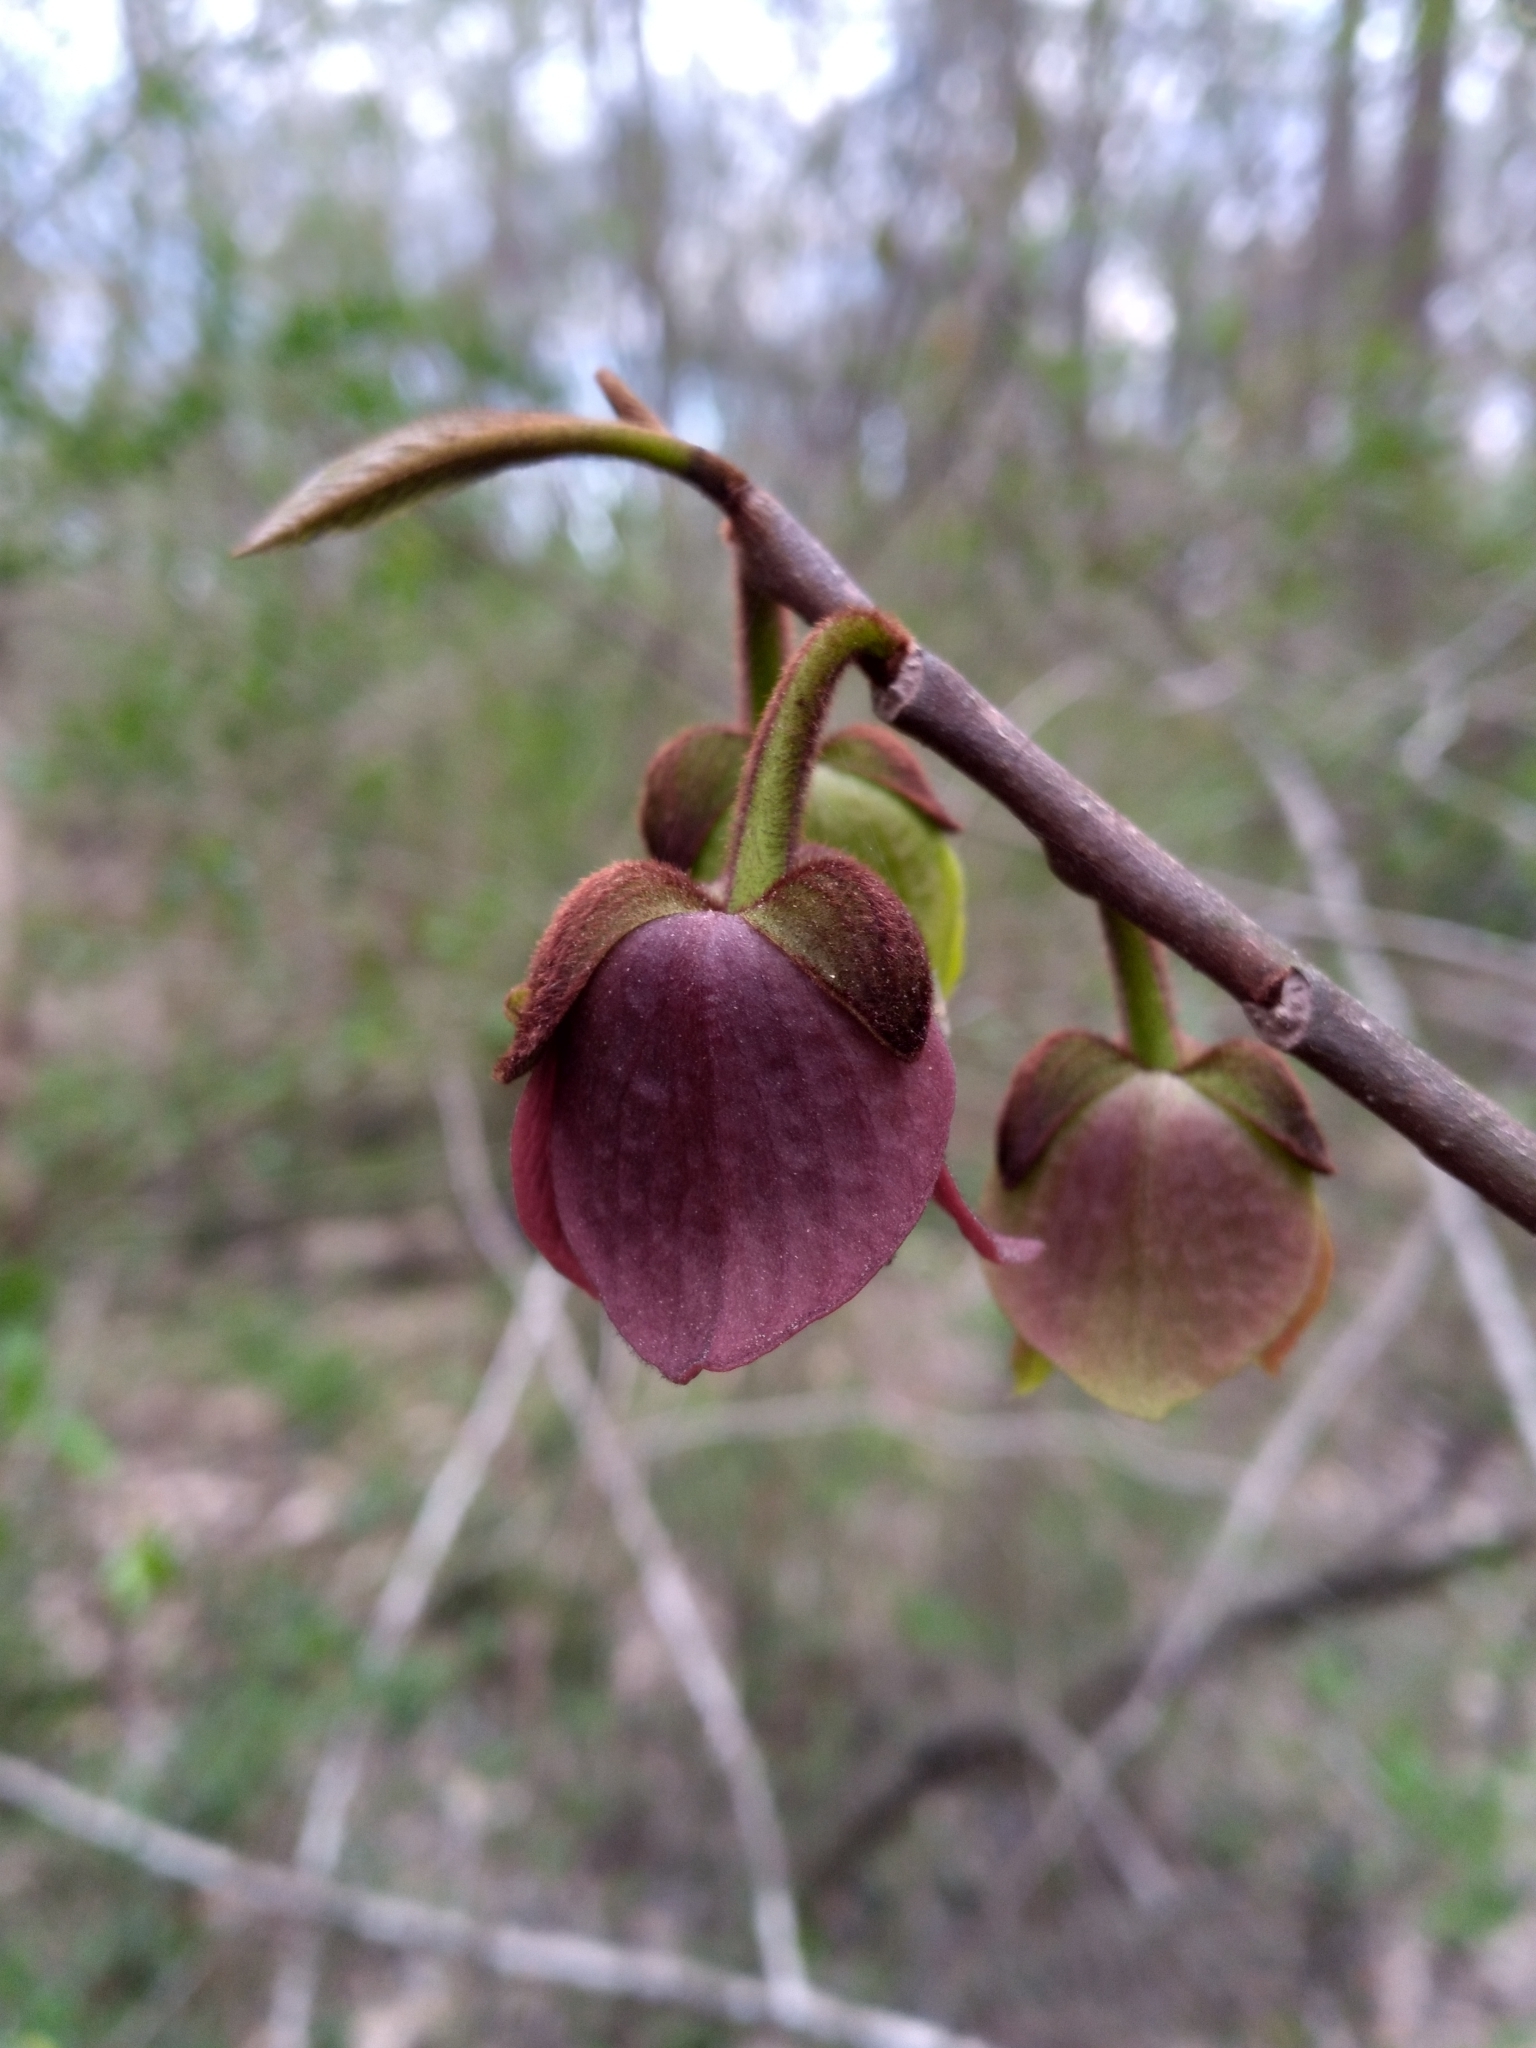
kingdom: Plantae
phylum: Tracheophyta
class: Magnoliopsida
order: Magnoliales
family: Annonaceae
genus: Asimina
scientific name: Asimina triloba
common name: Dog-banana
